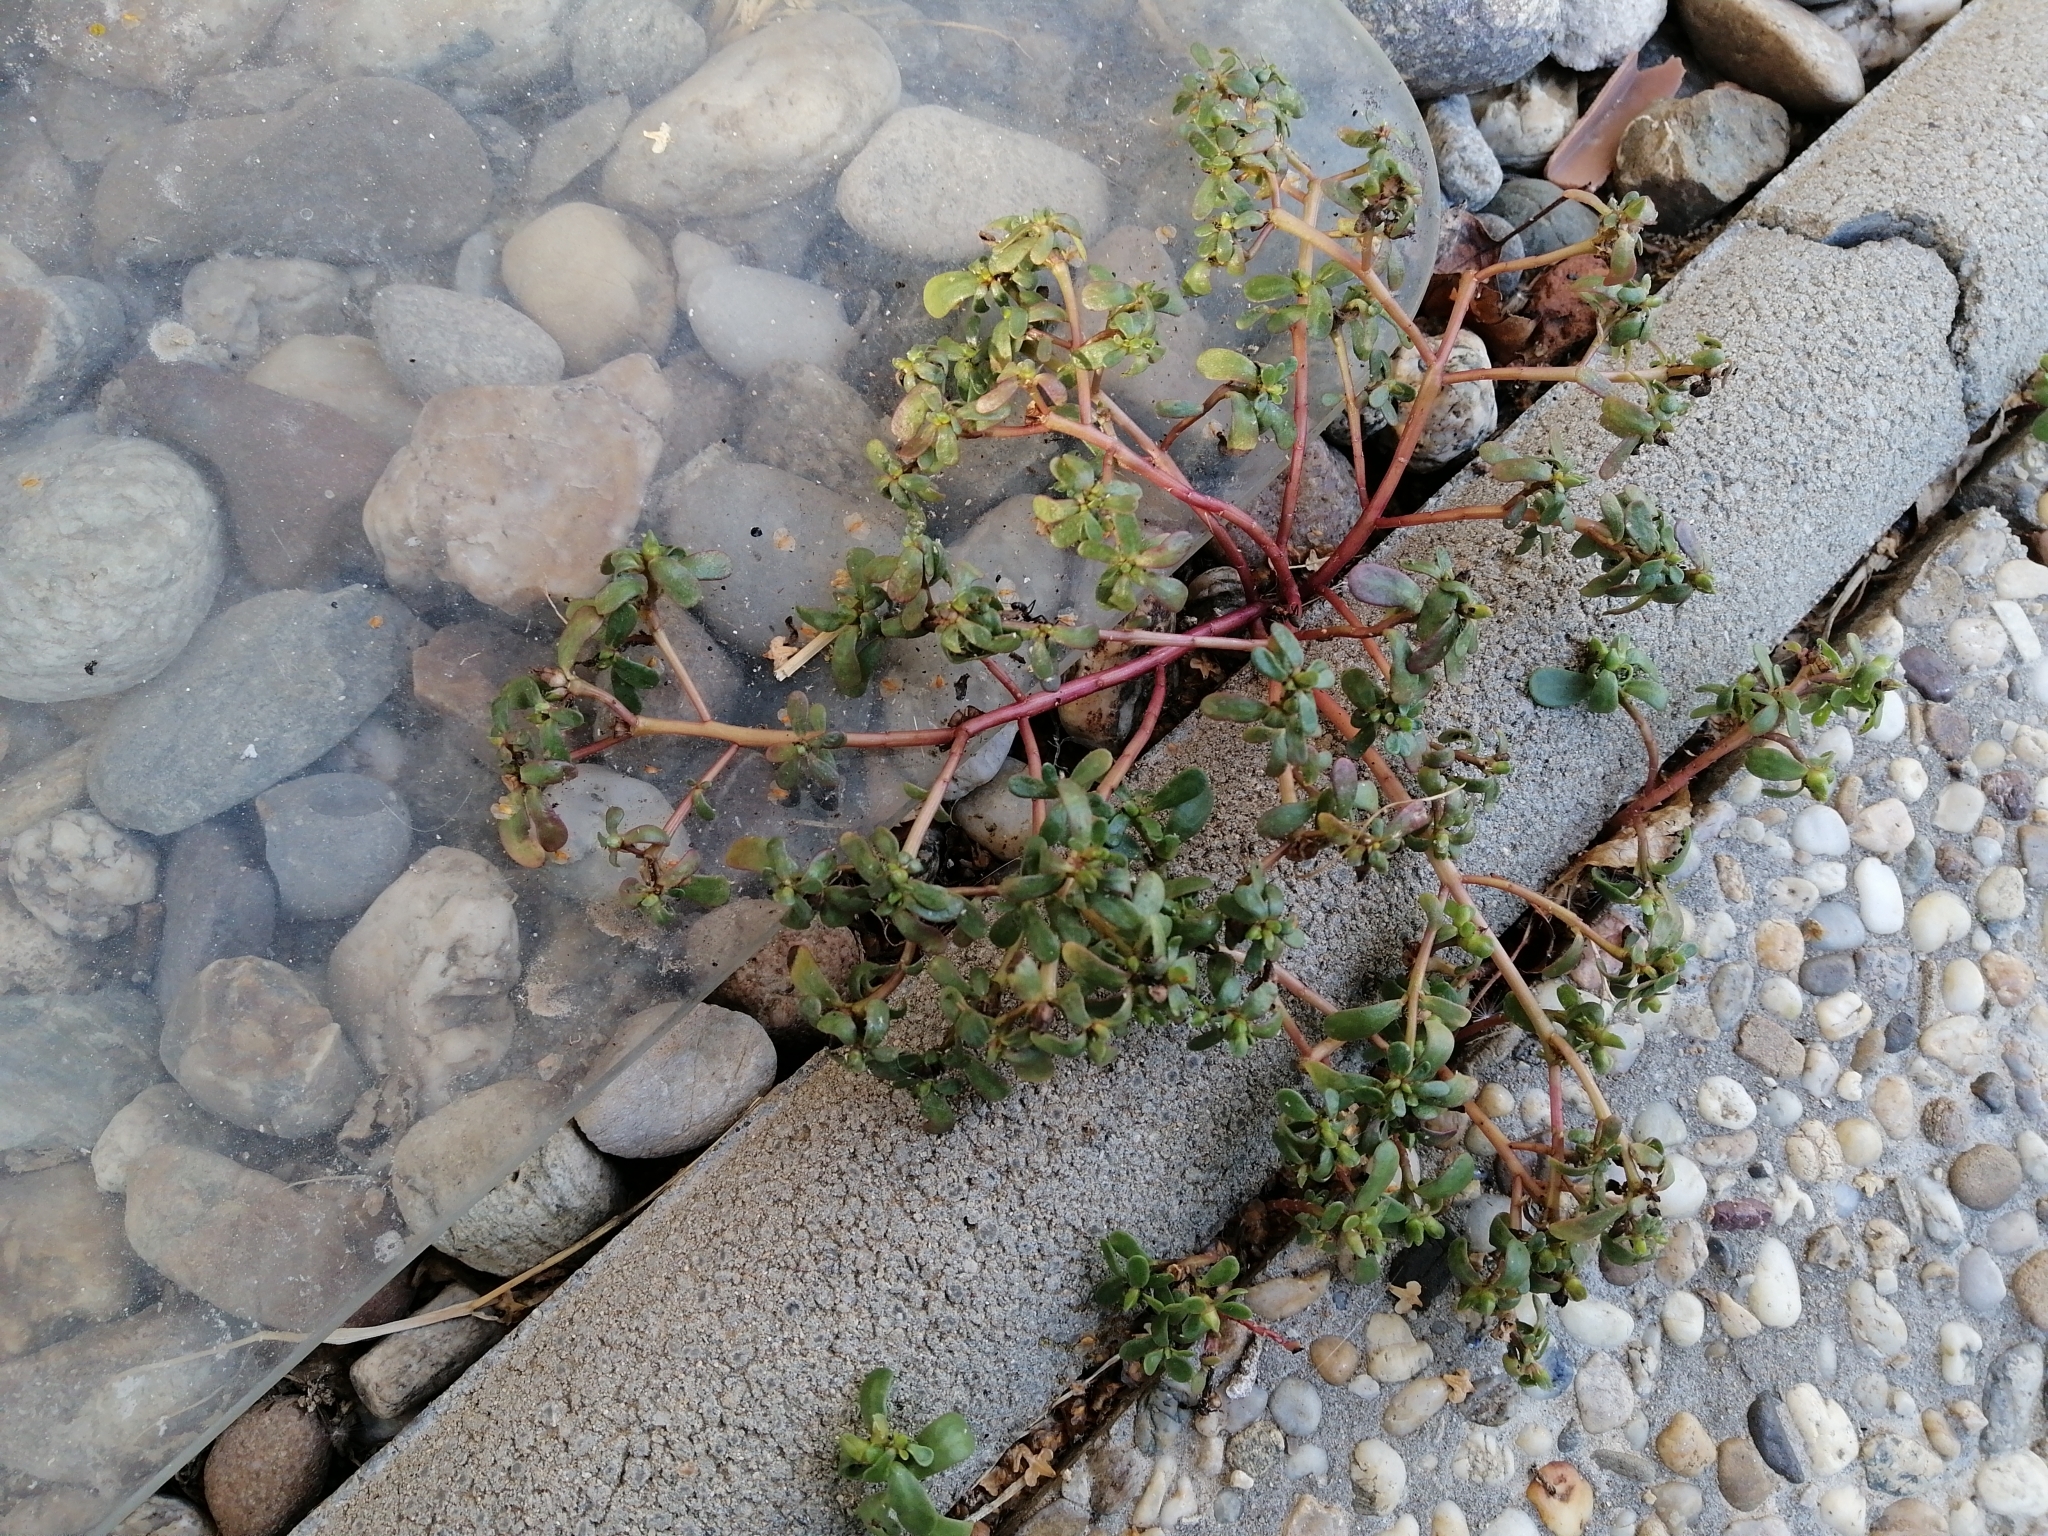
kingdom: Plantae
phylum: Tracheophyta
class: Magnoliopsida
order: Caryophyllales
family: Portulacaceae
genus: Portulaca
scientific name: Portulaca oleracea
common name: Common purslane
